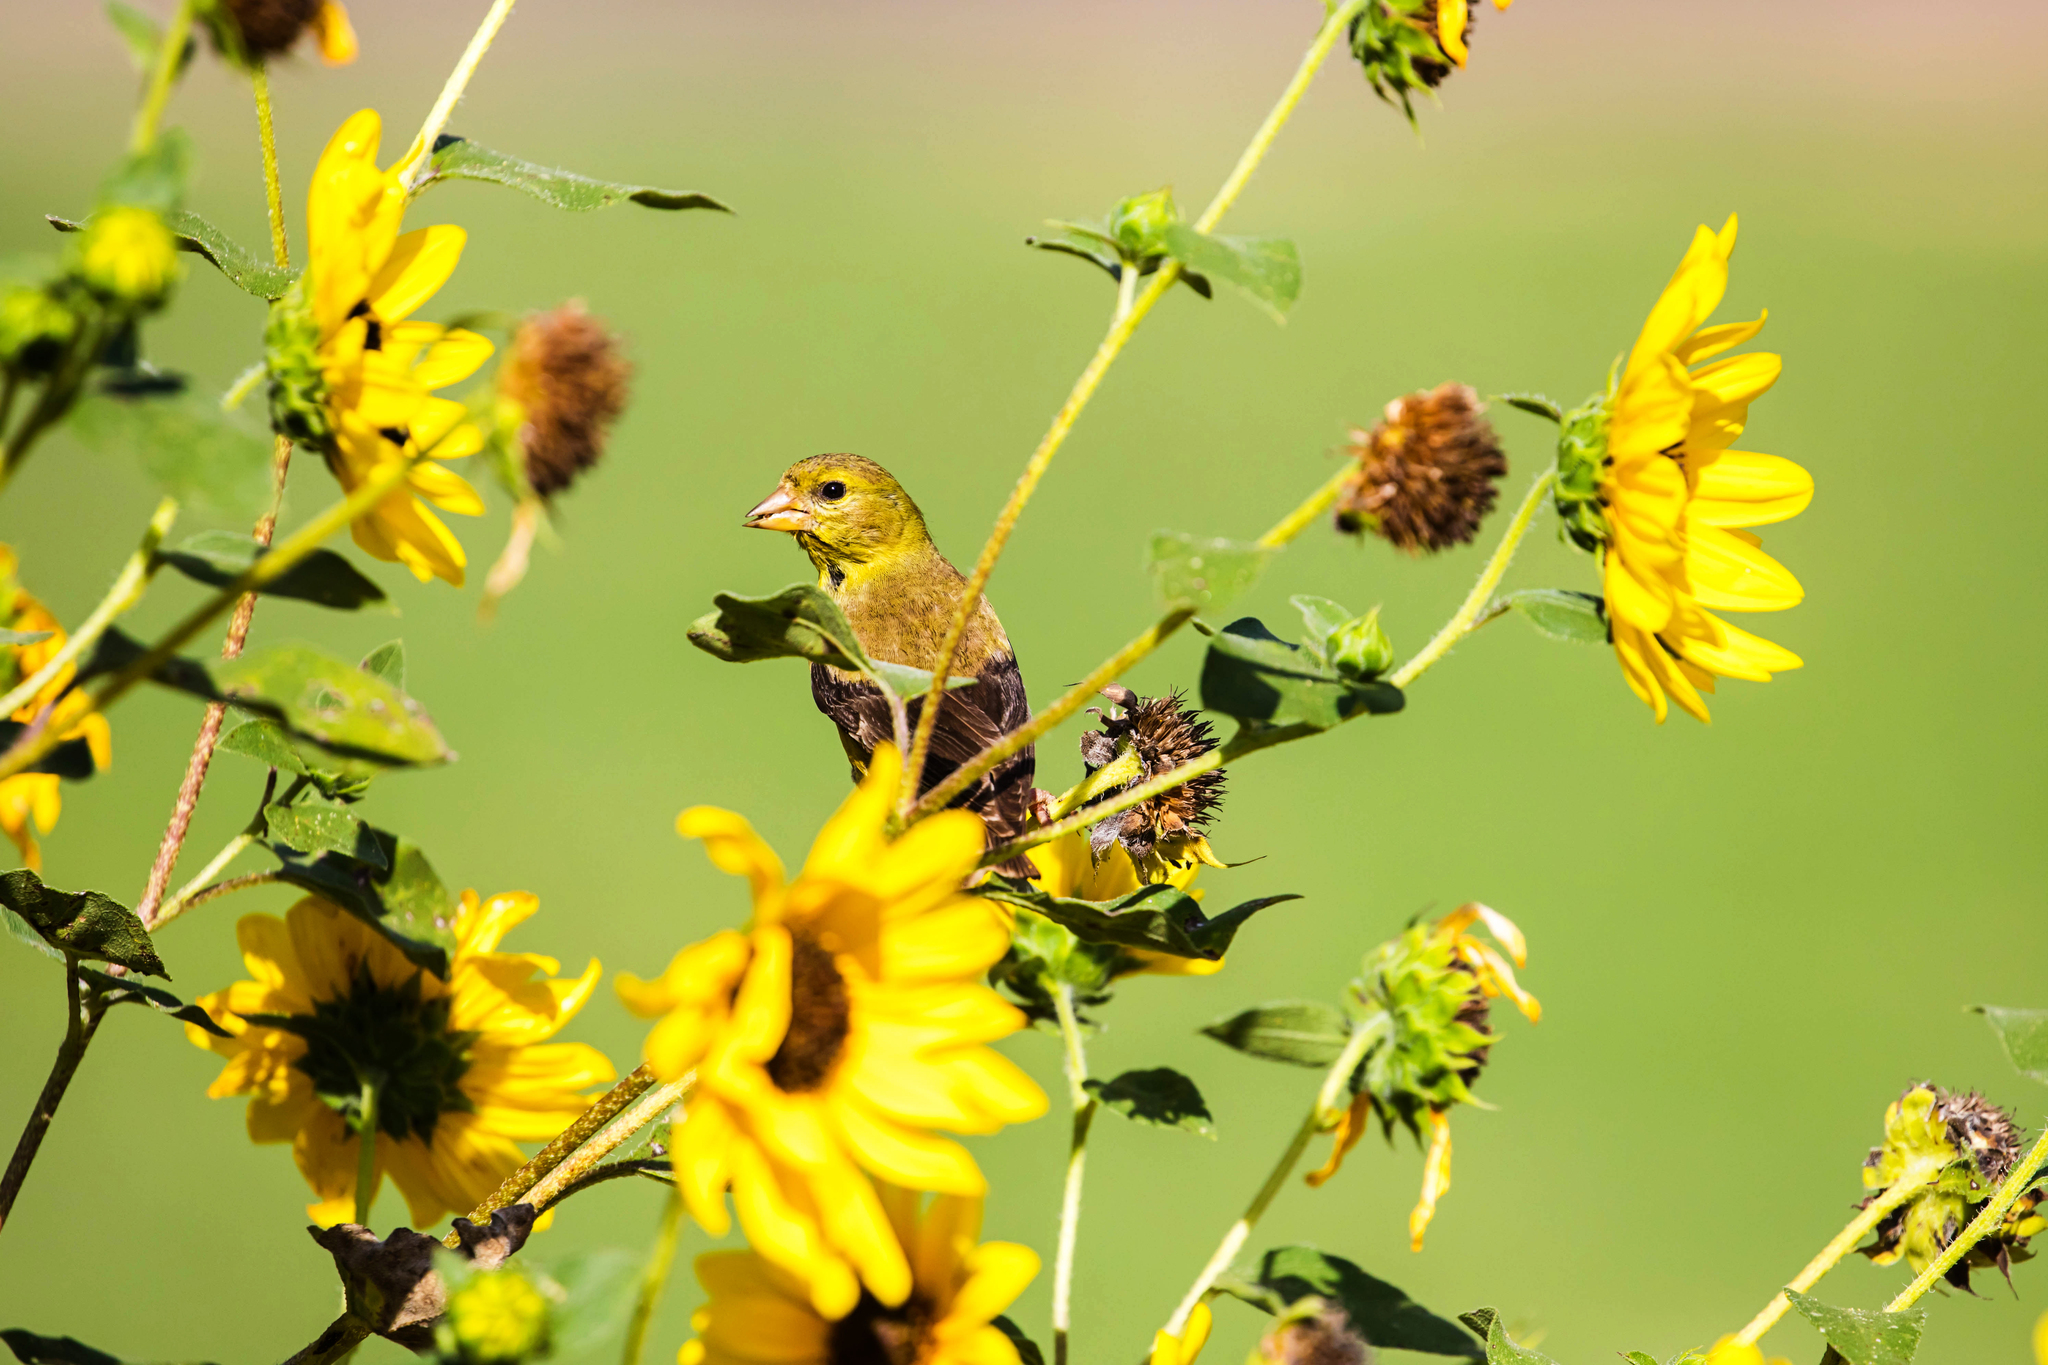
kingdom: Animalia
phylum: Chordata
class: Aves
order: Passeriformes
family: Fringillidae
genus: Spinus
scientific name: Spinus tristis
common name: American goldfinch
